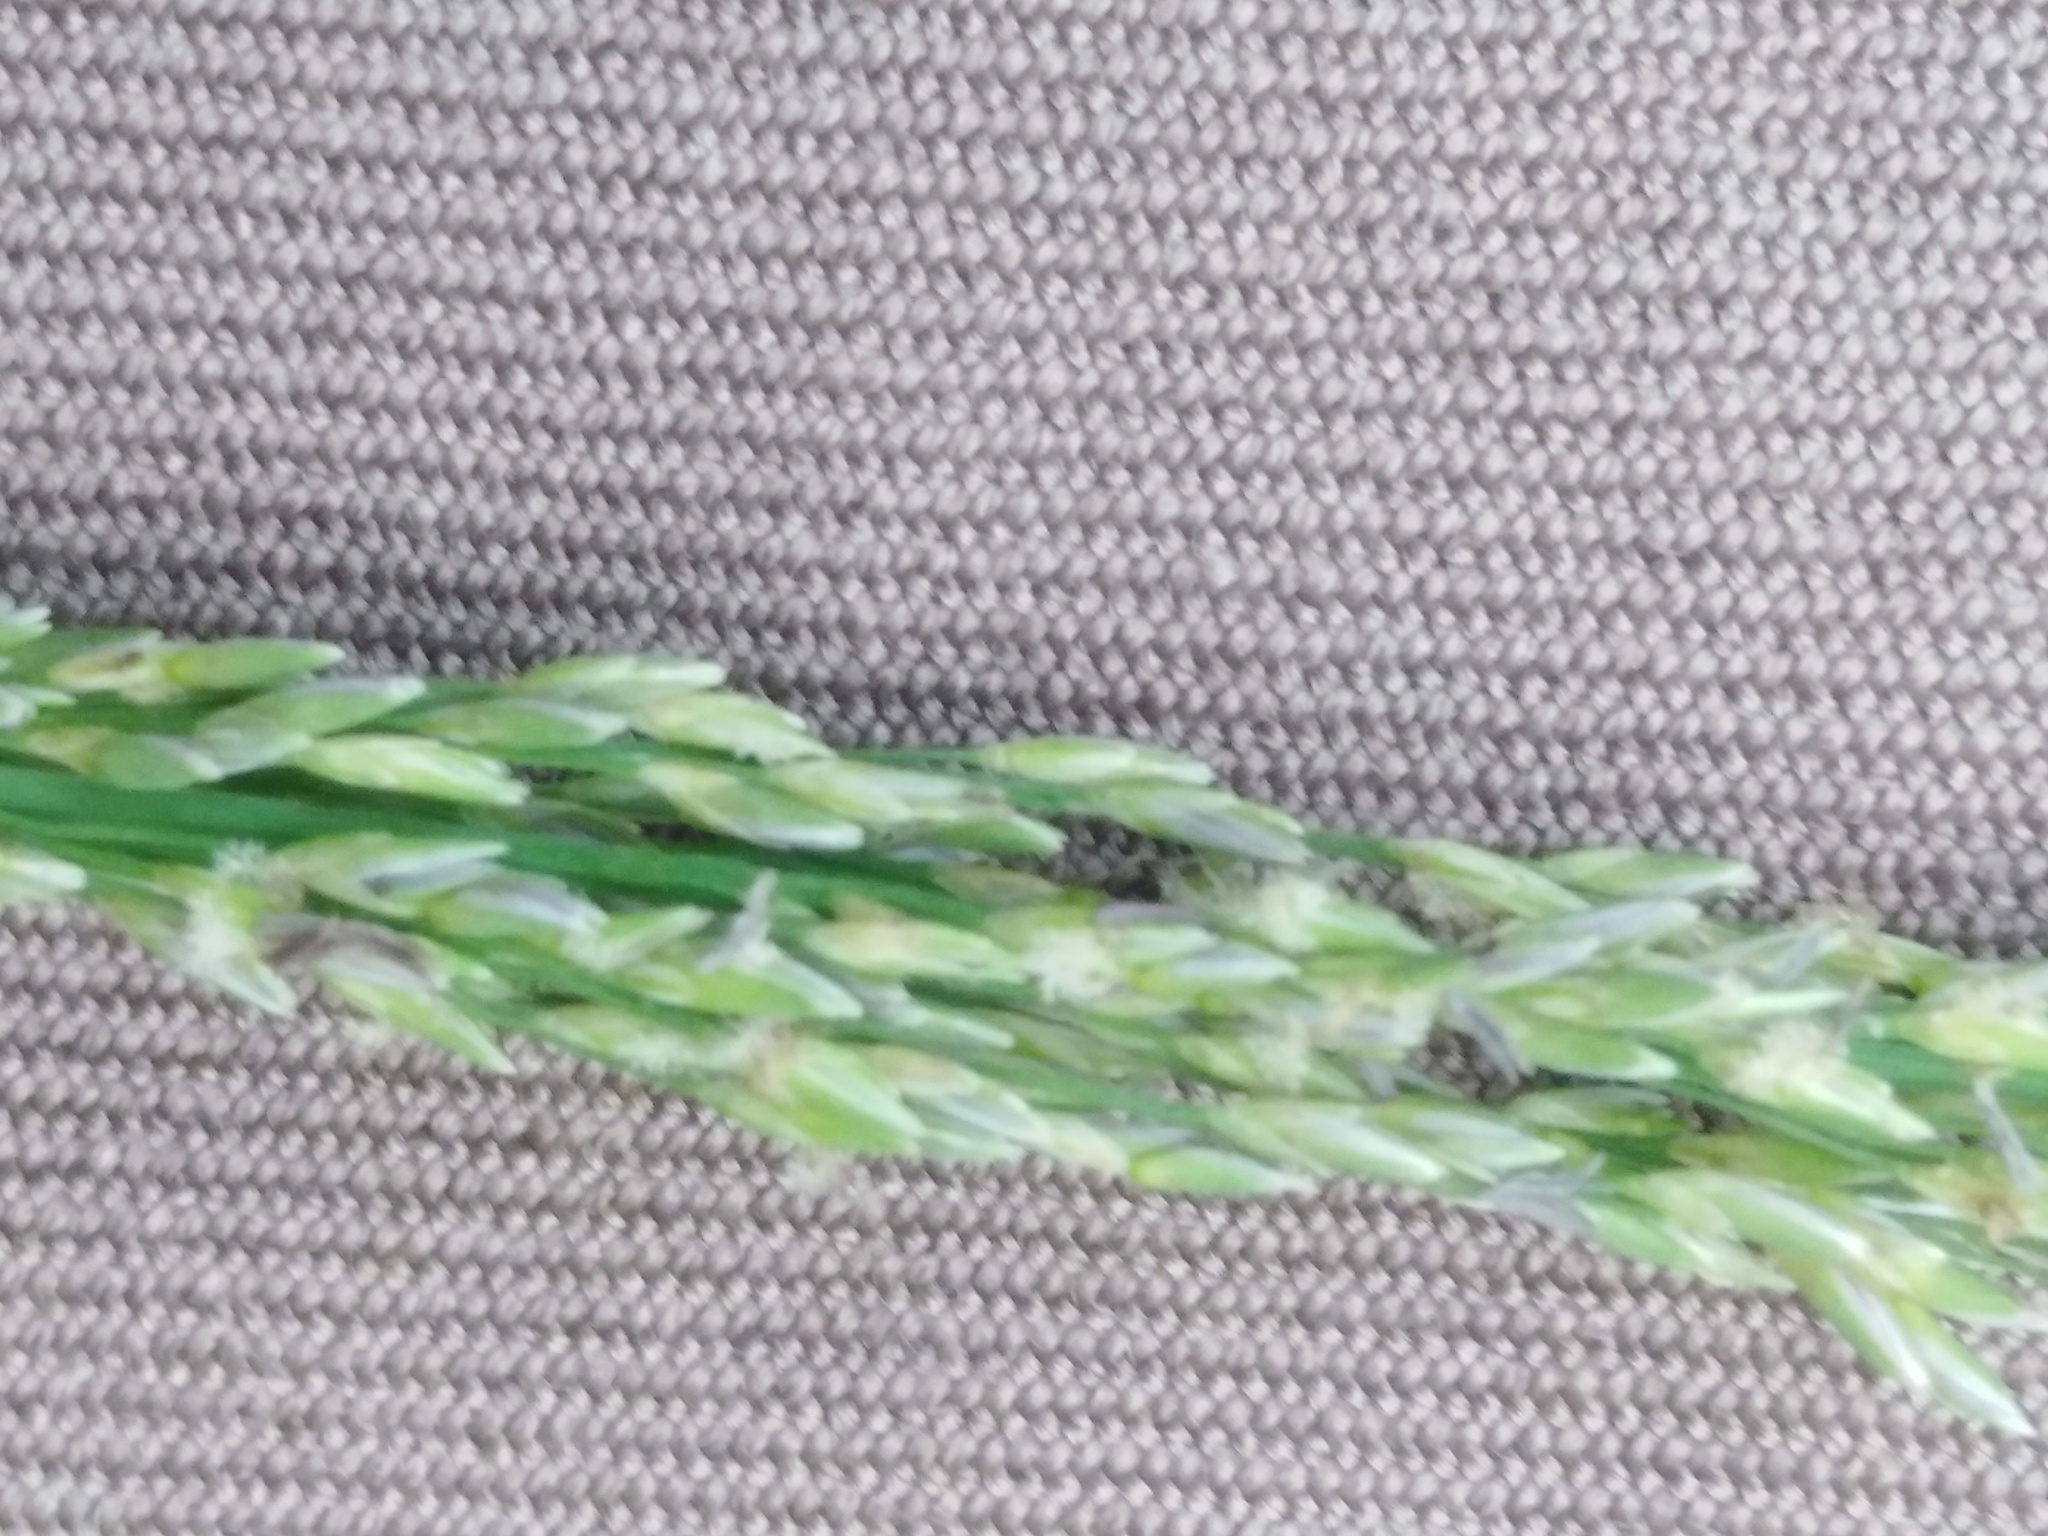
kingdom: Plantae
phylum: Tracheophyta
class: Liliopsida
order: Poales
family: Poaceae
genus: Molinia
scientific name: Molinia caerulea
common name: Purple moor-grass
